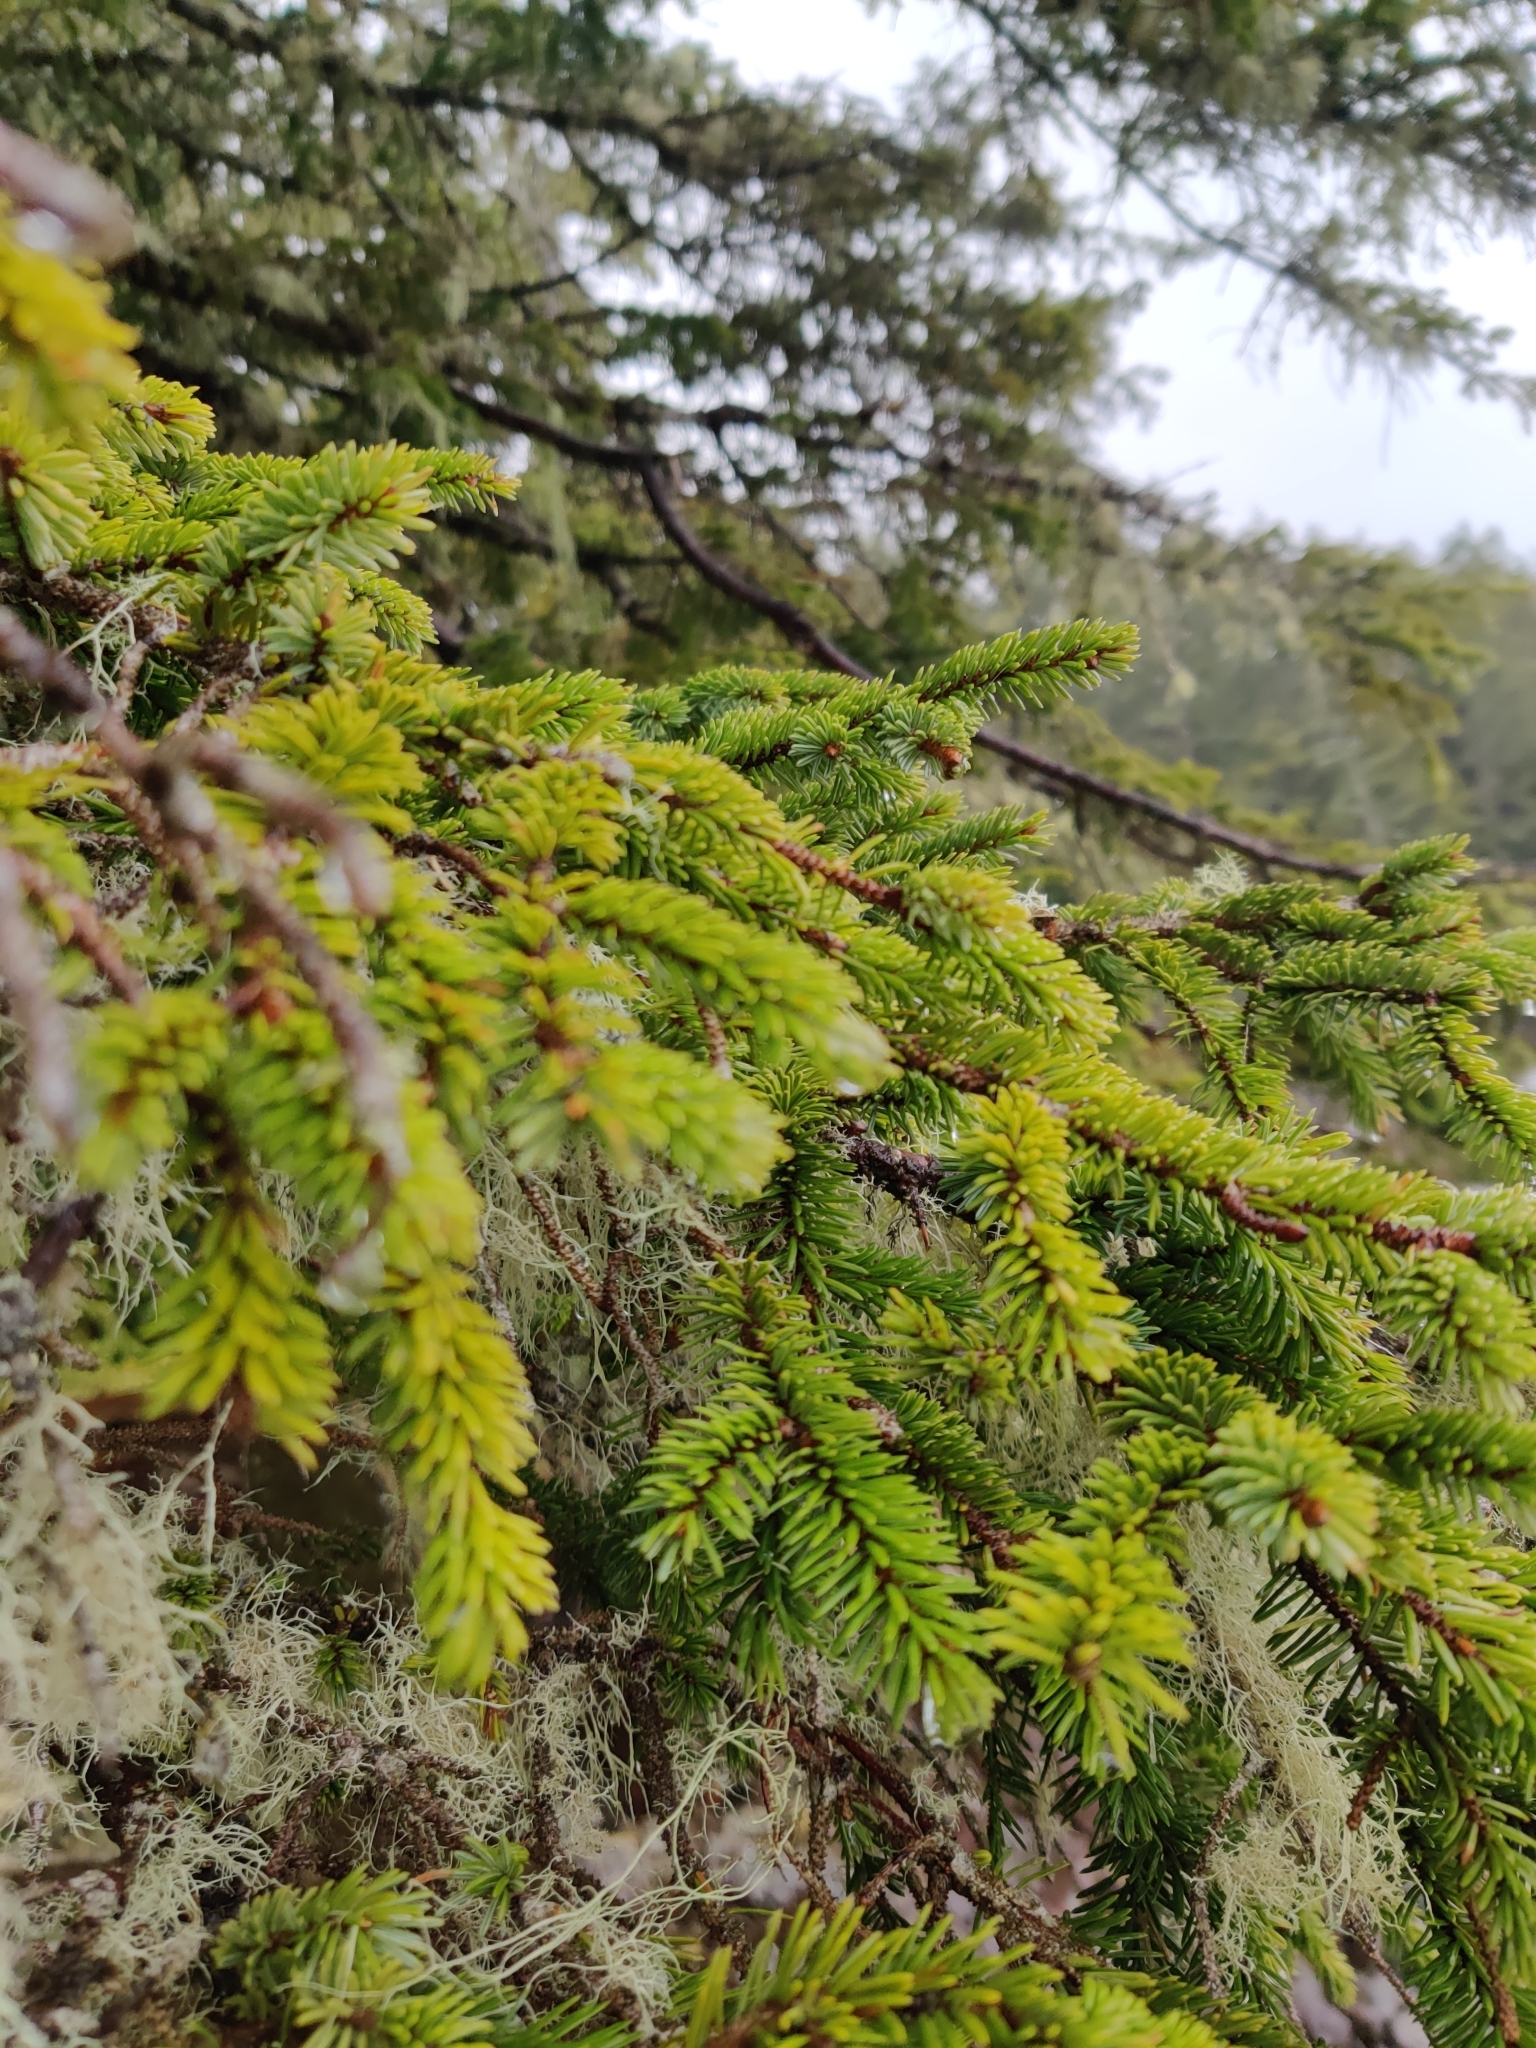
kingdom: Plantae
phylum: Tracheophyta
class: Pinopsida
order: Pinales
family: Pinaceae
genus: Picea
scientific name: Picea sitchensis
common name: Sitka spruce
